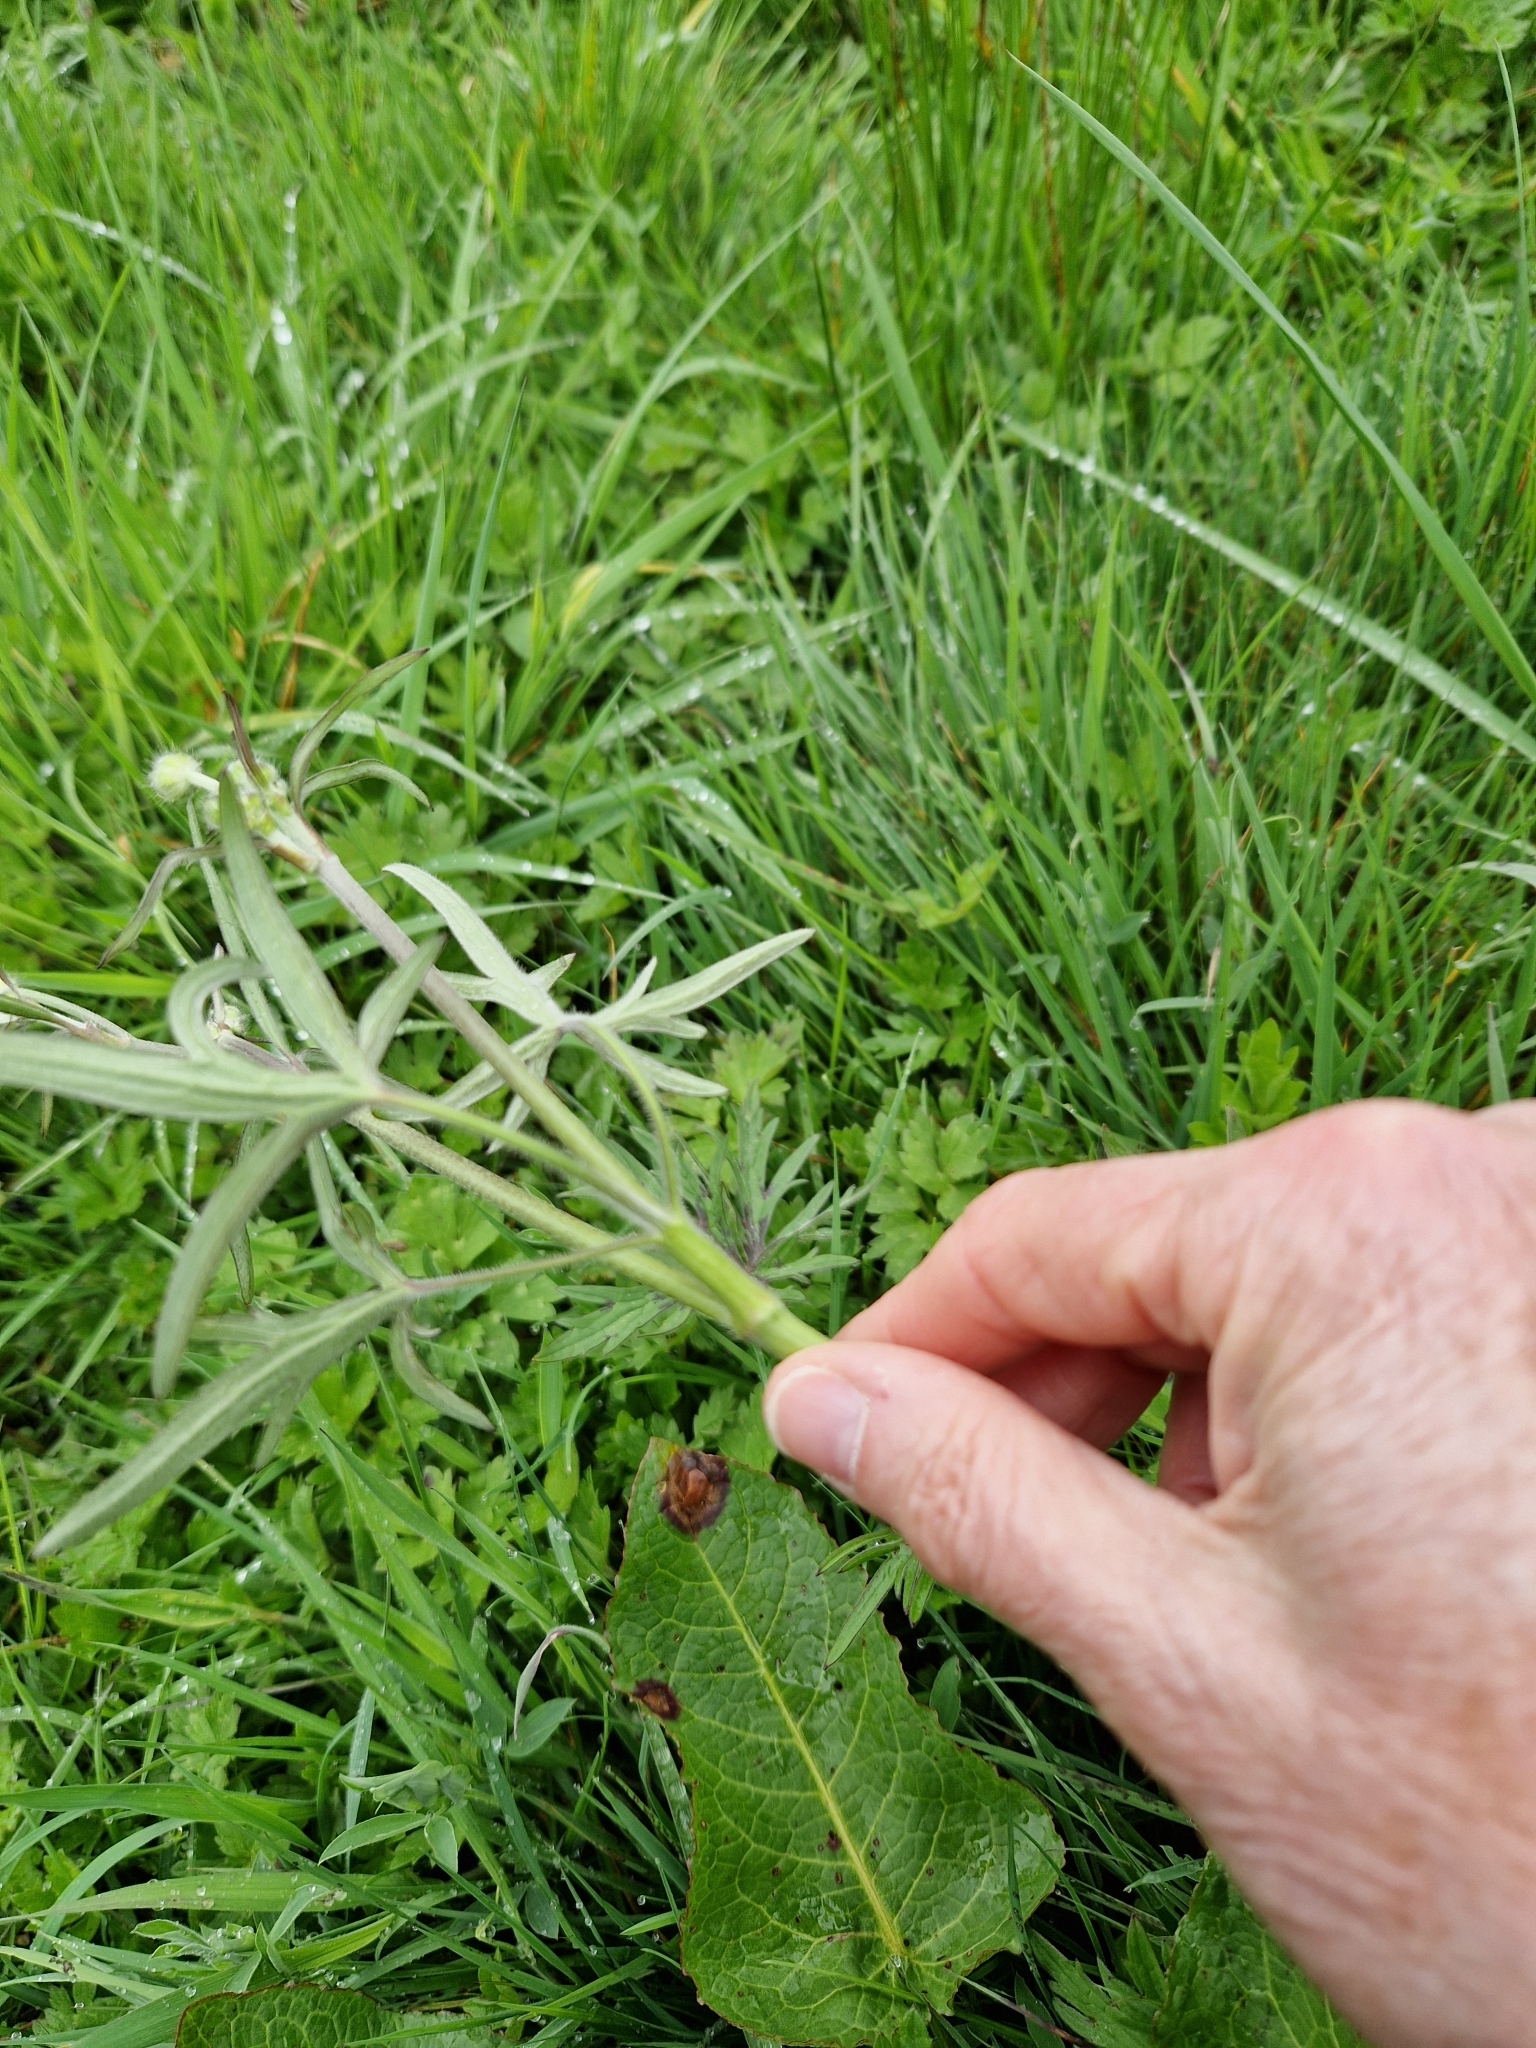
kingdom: Plantae
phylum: Tracheophyta
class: Magnoliopsida
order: Ranunculales
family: Ranunculaceae
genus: Ranunculus
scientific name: Ranunculus acris
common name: Meadow buttercup
